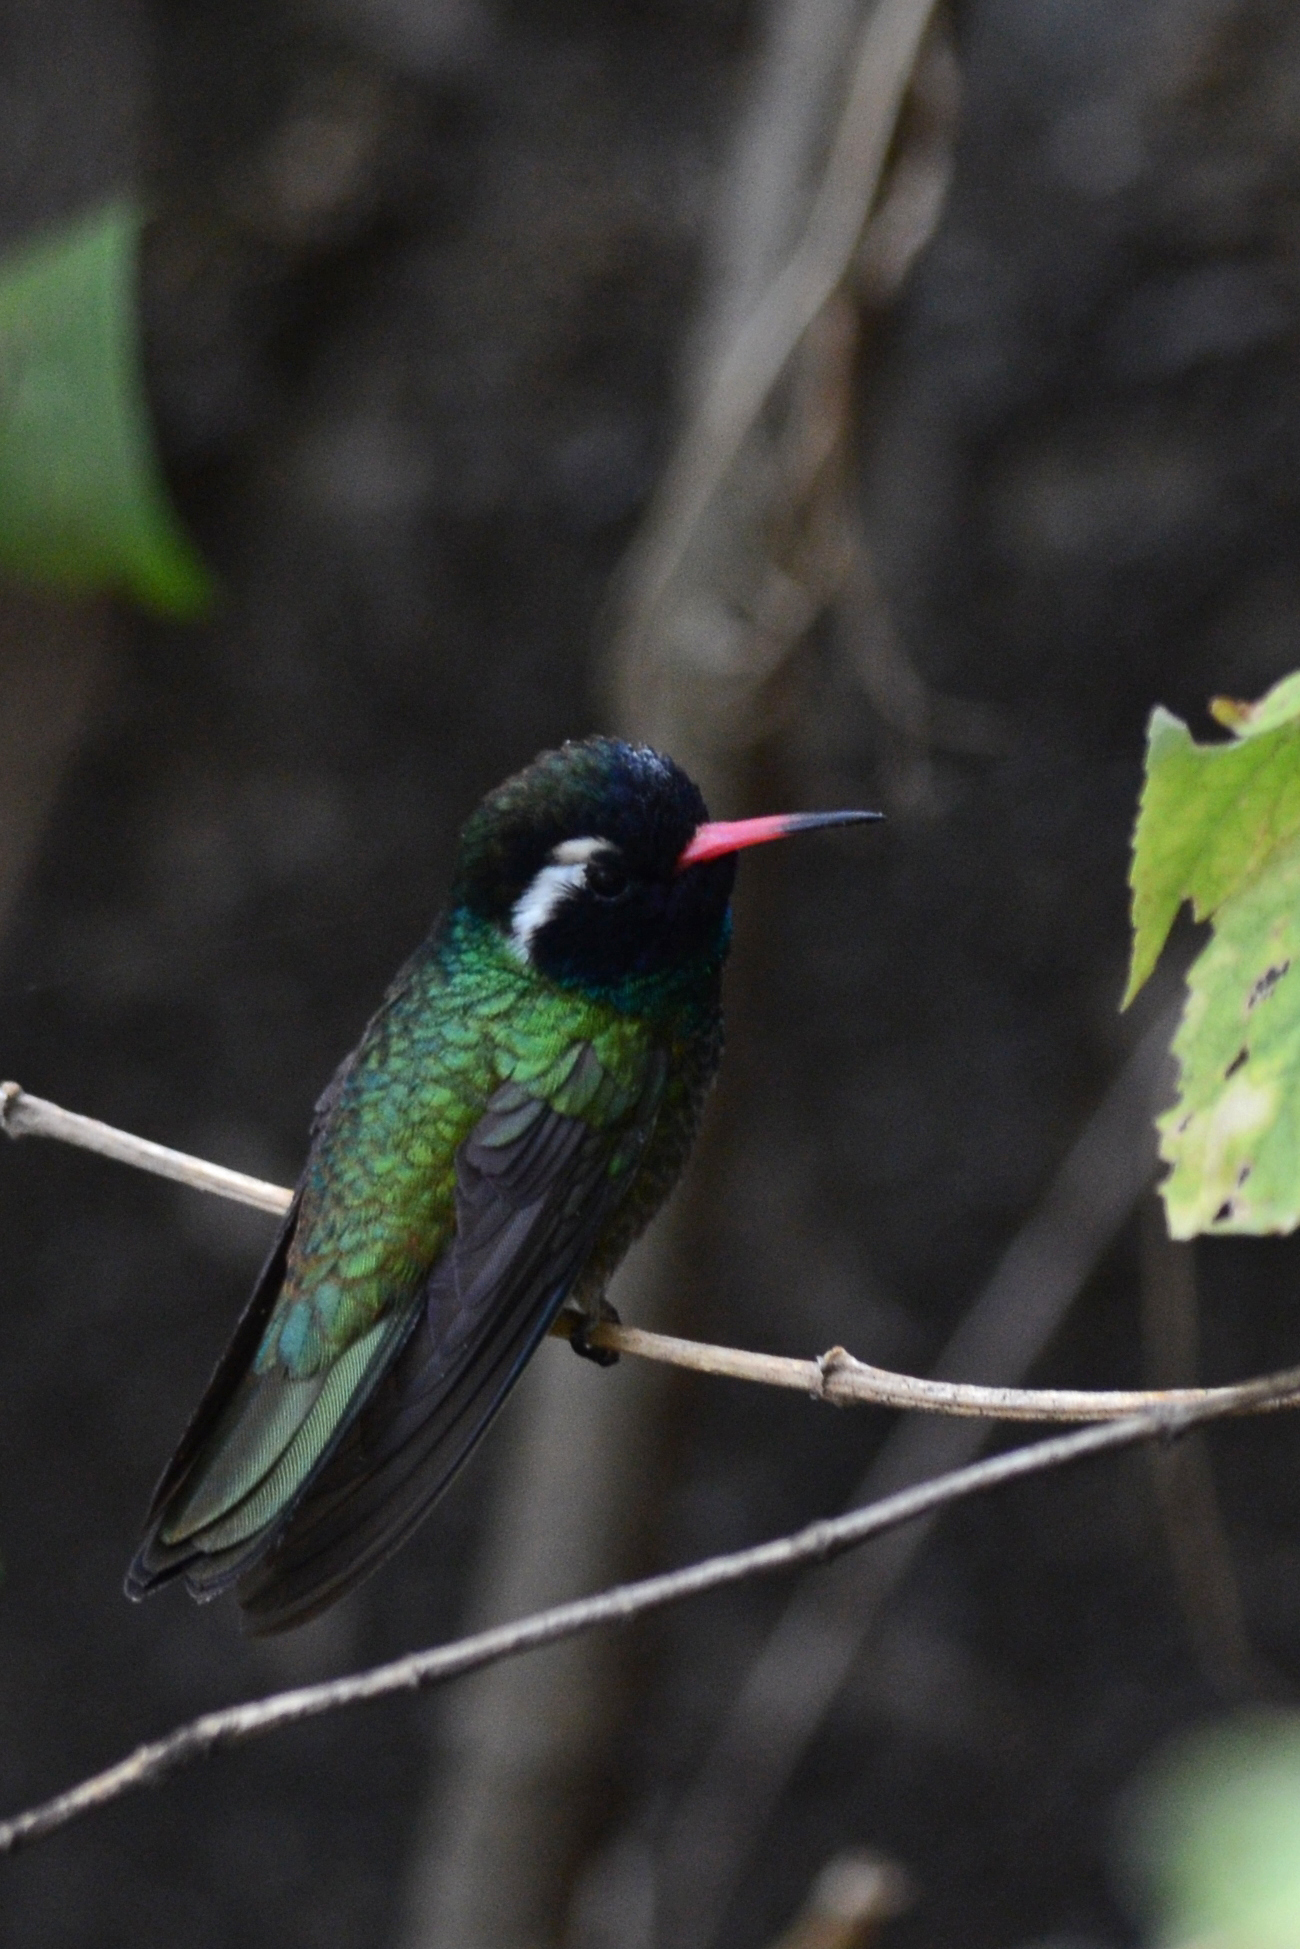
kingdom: Animalia
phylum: Chordata
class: Aves
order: Apodiformes
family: Trochilidae
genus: Basilinna
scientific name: Basilinna leucotis
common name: White-eared hummingbird
